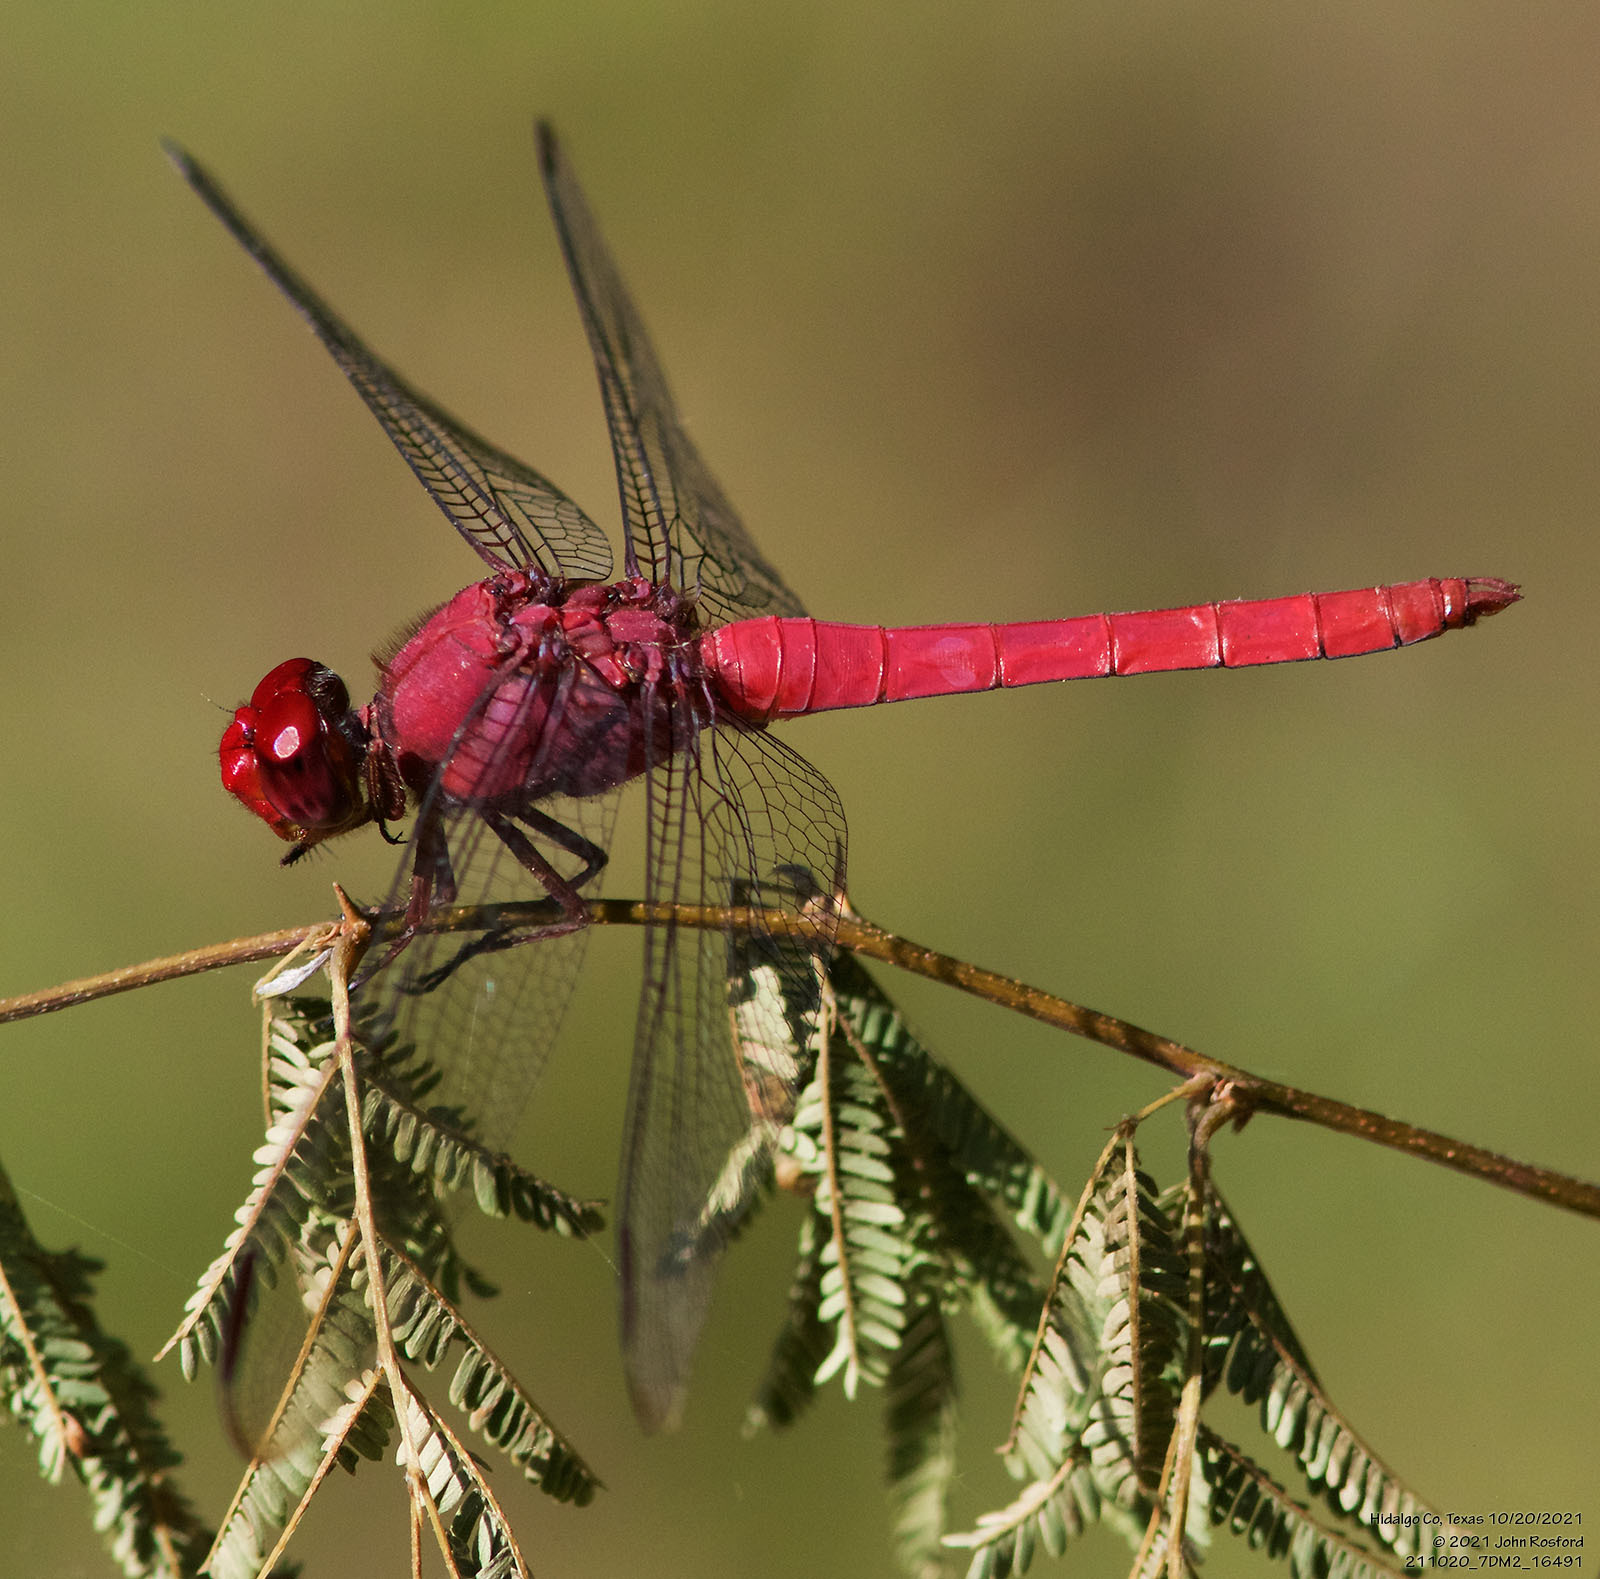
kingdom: Animalia
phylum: Arthropoda
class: Insecta
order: Odonata
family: Libellulidae
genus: Orthemis
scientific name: Orthemis discolor
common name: Carmine skimmer
